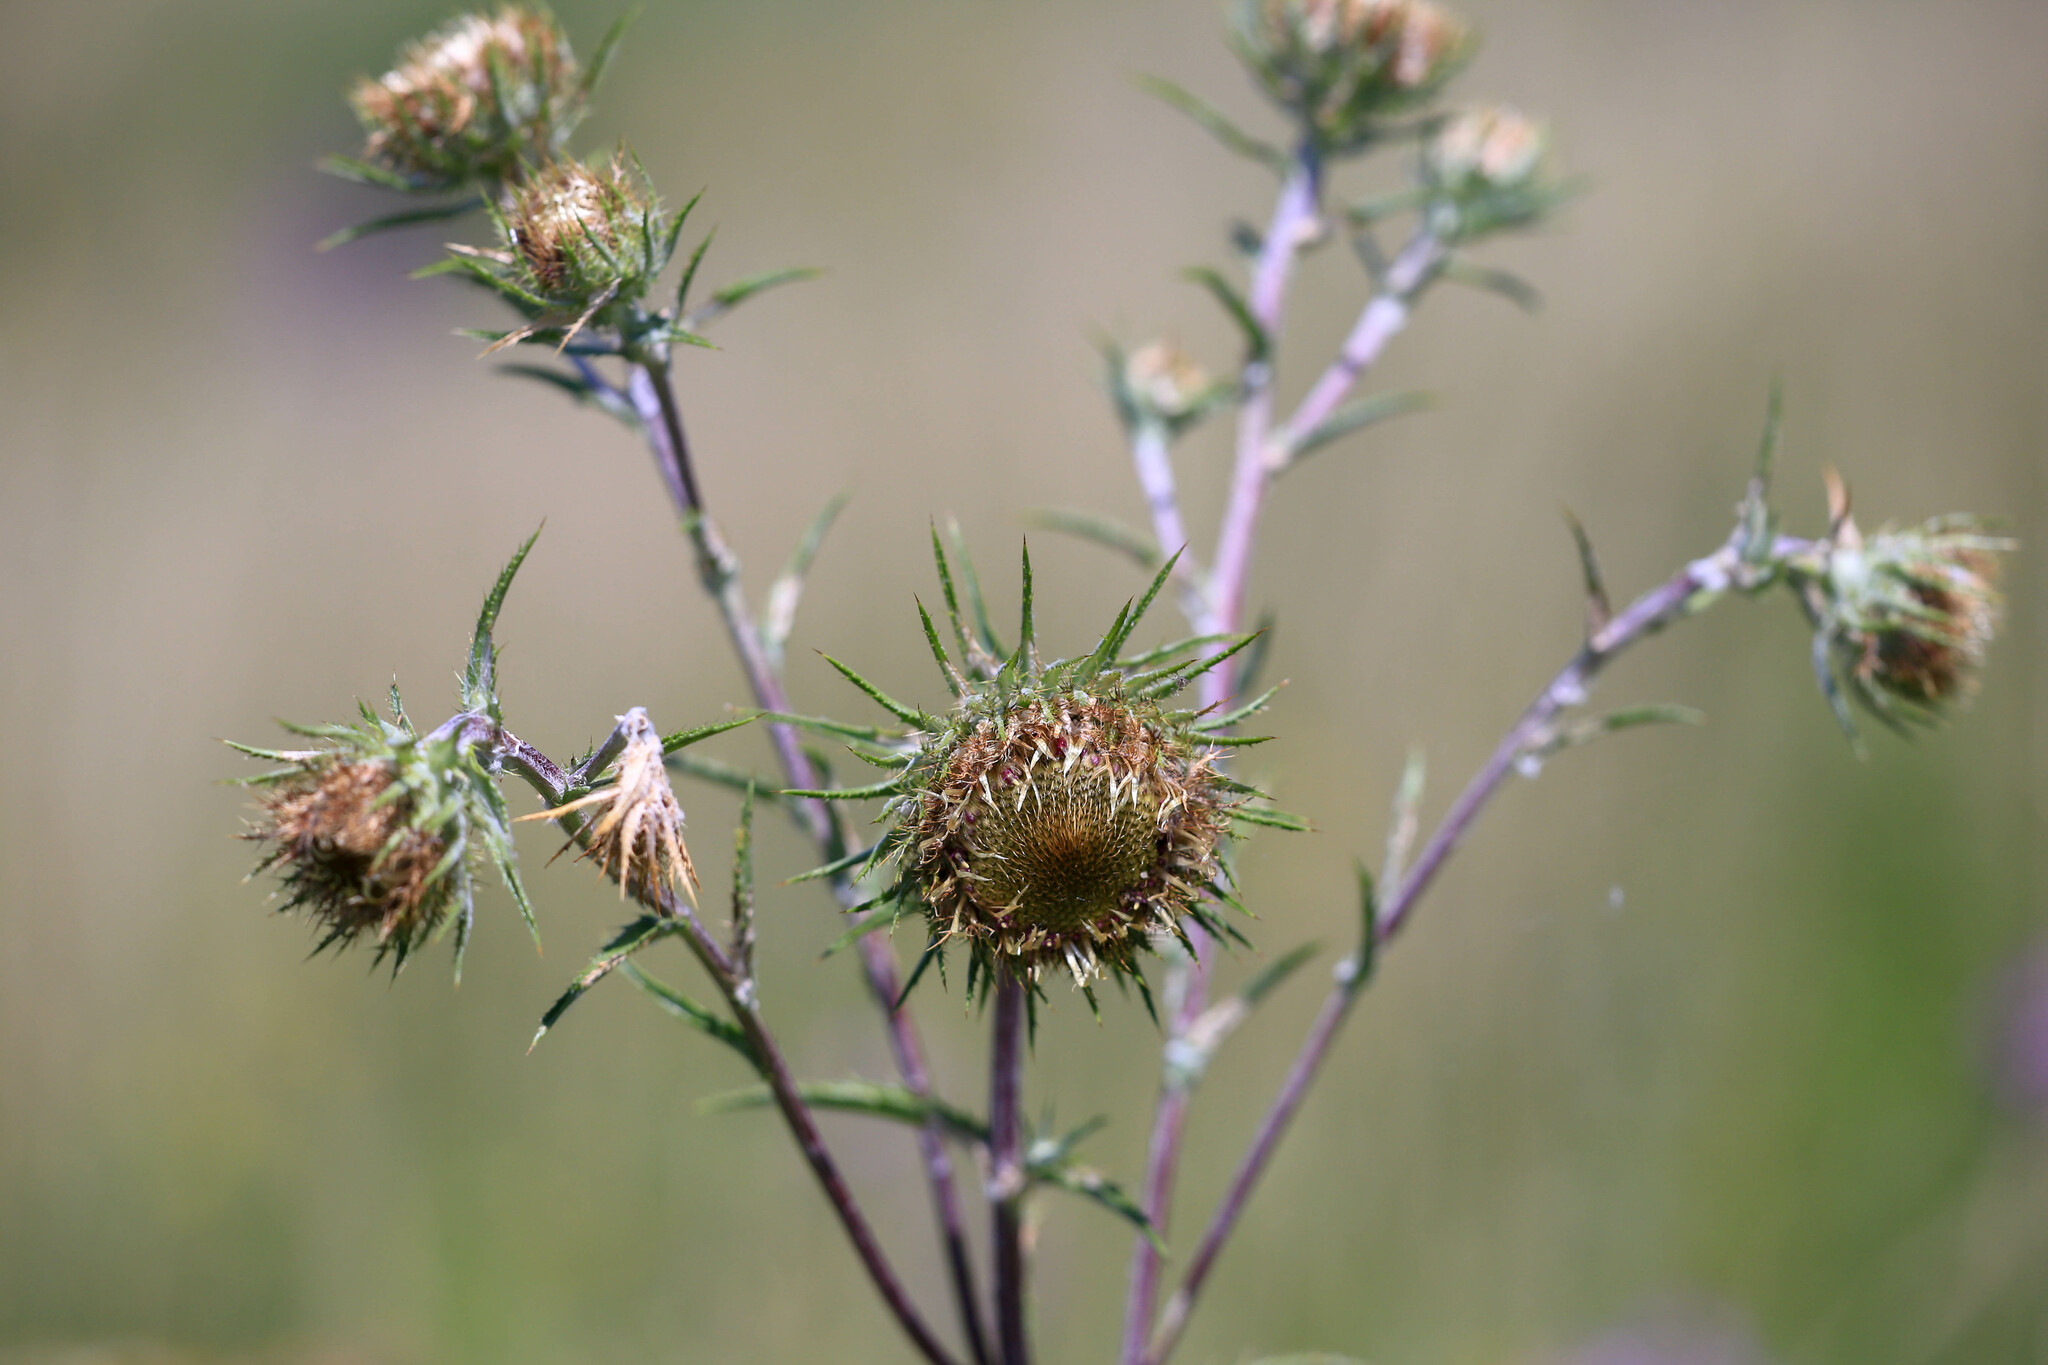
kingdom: Plantae
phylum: Tracheophyta
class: Magnoliopsida
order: Asterales
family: Asteraceae
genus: Carlina
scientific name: Carlina biebersteinii
